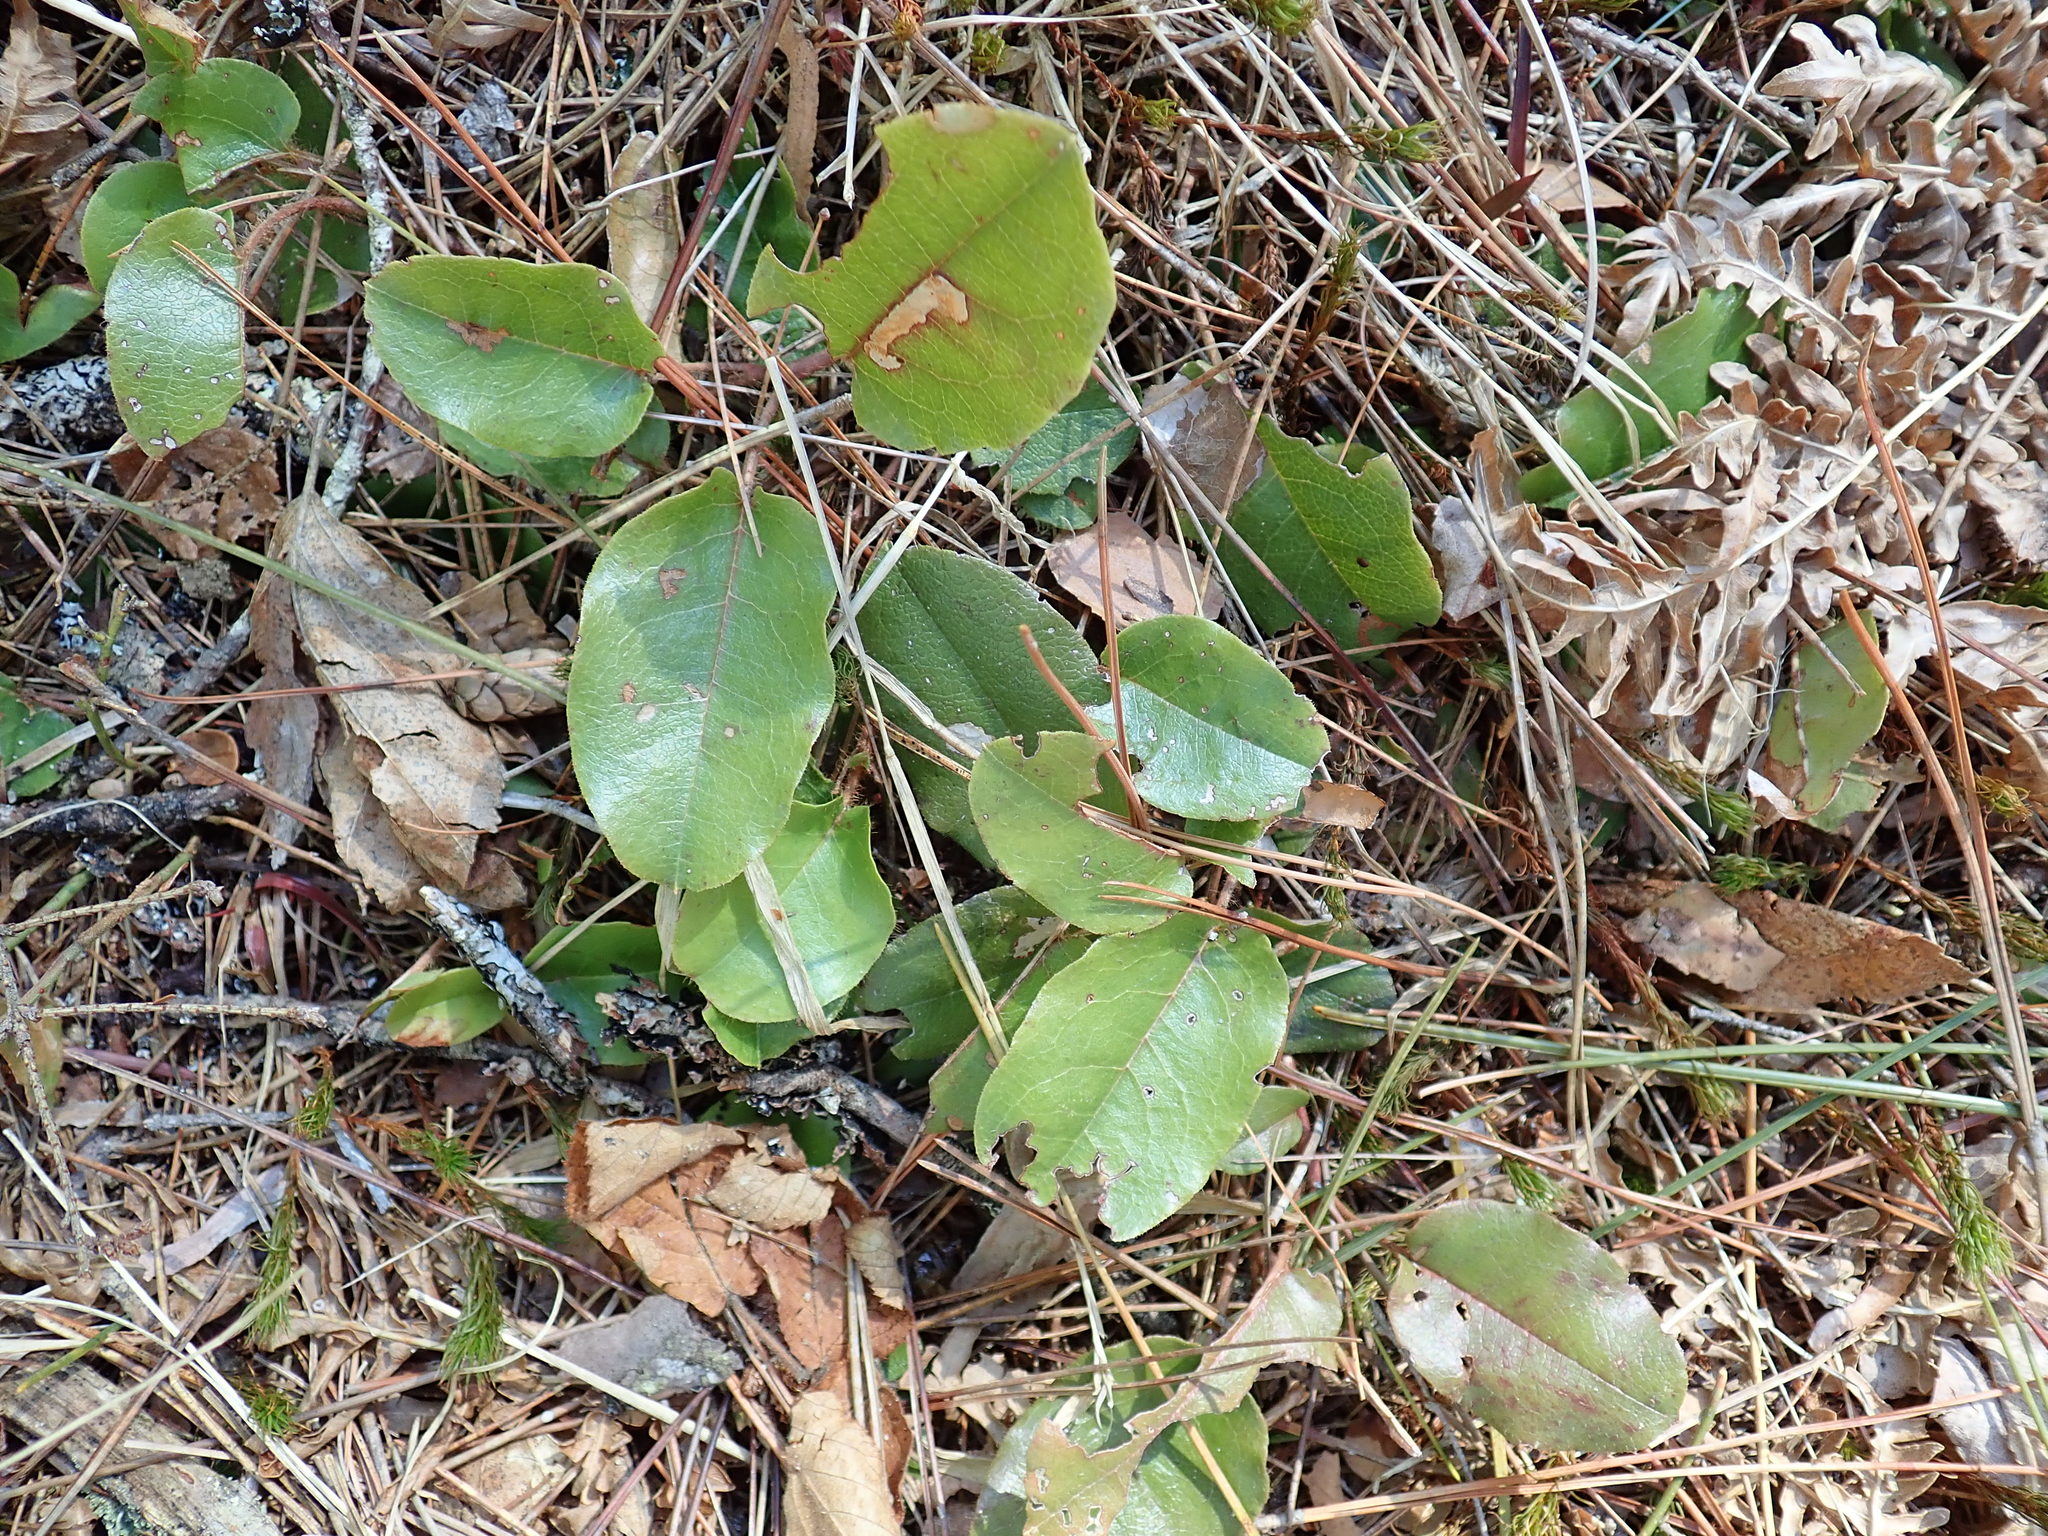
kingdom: Plantae
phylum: Tracheophyta
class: Magnoliopsida
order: Ericales
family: Ericaceae
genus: Epigaea
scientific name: Epigaea repens
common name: Gravelroot
